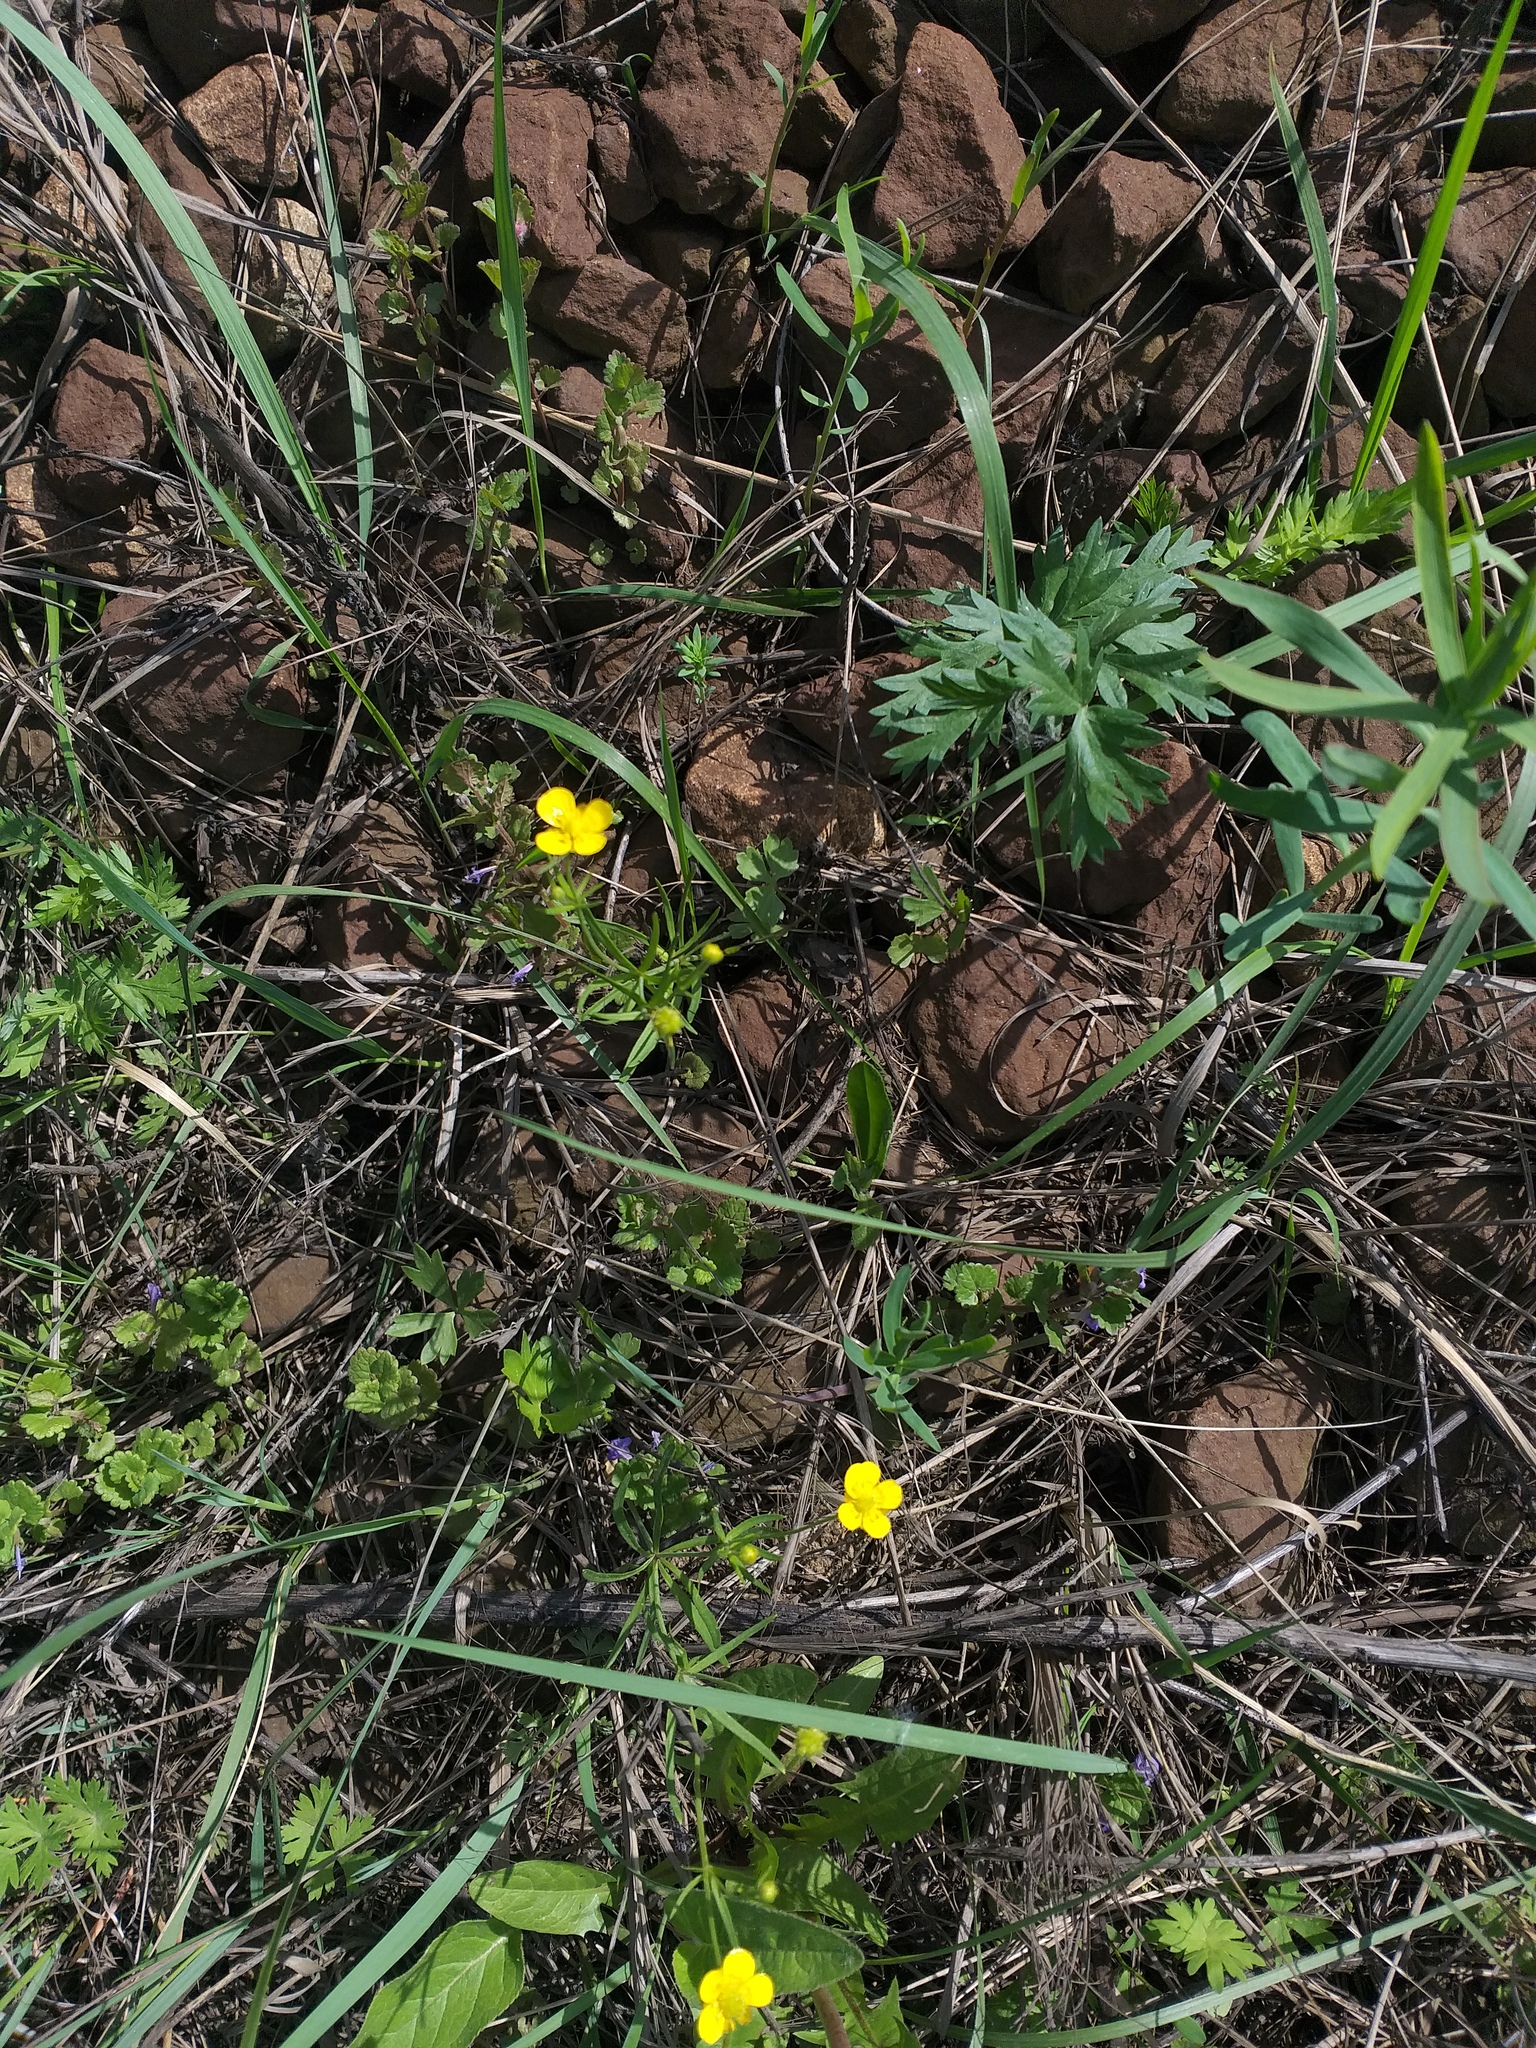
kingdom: Plantae
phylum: Tracheophyta
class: Magnoliopsida
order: Ranunculales
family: Ranunculaceae
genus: Ranunculus
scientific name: Ranunculus auricomus
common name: Goldilocks buttercup
